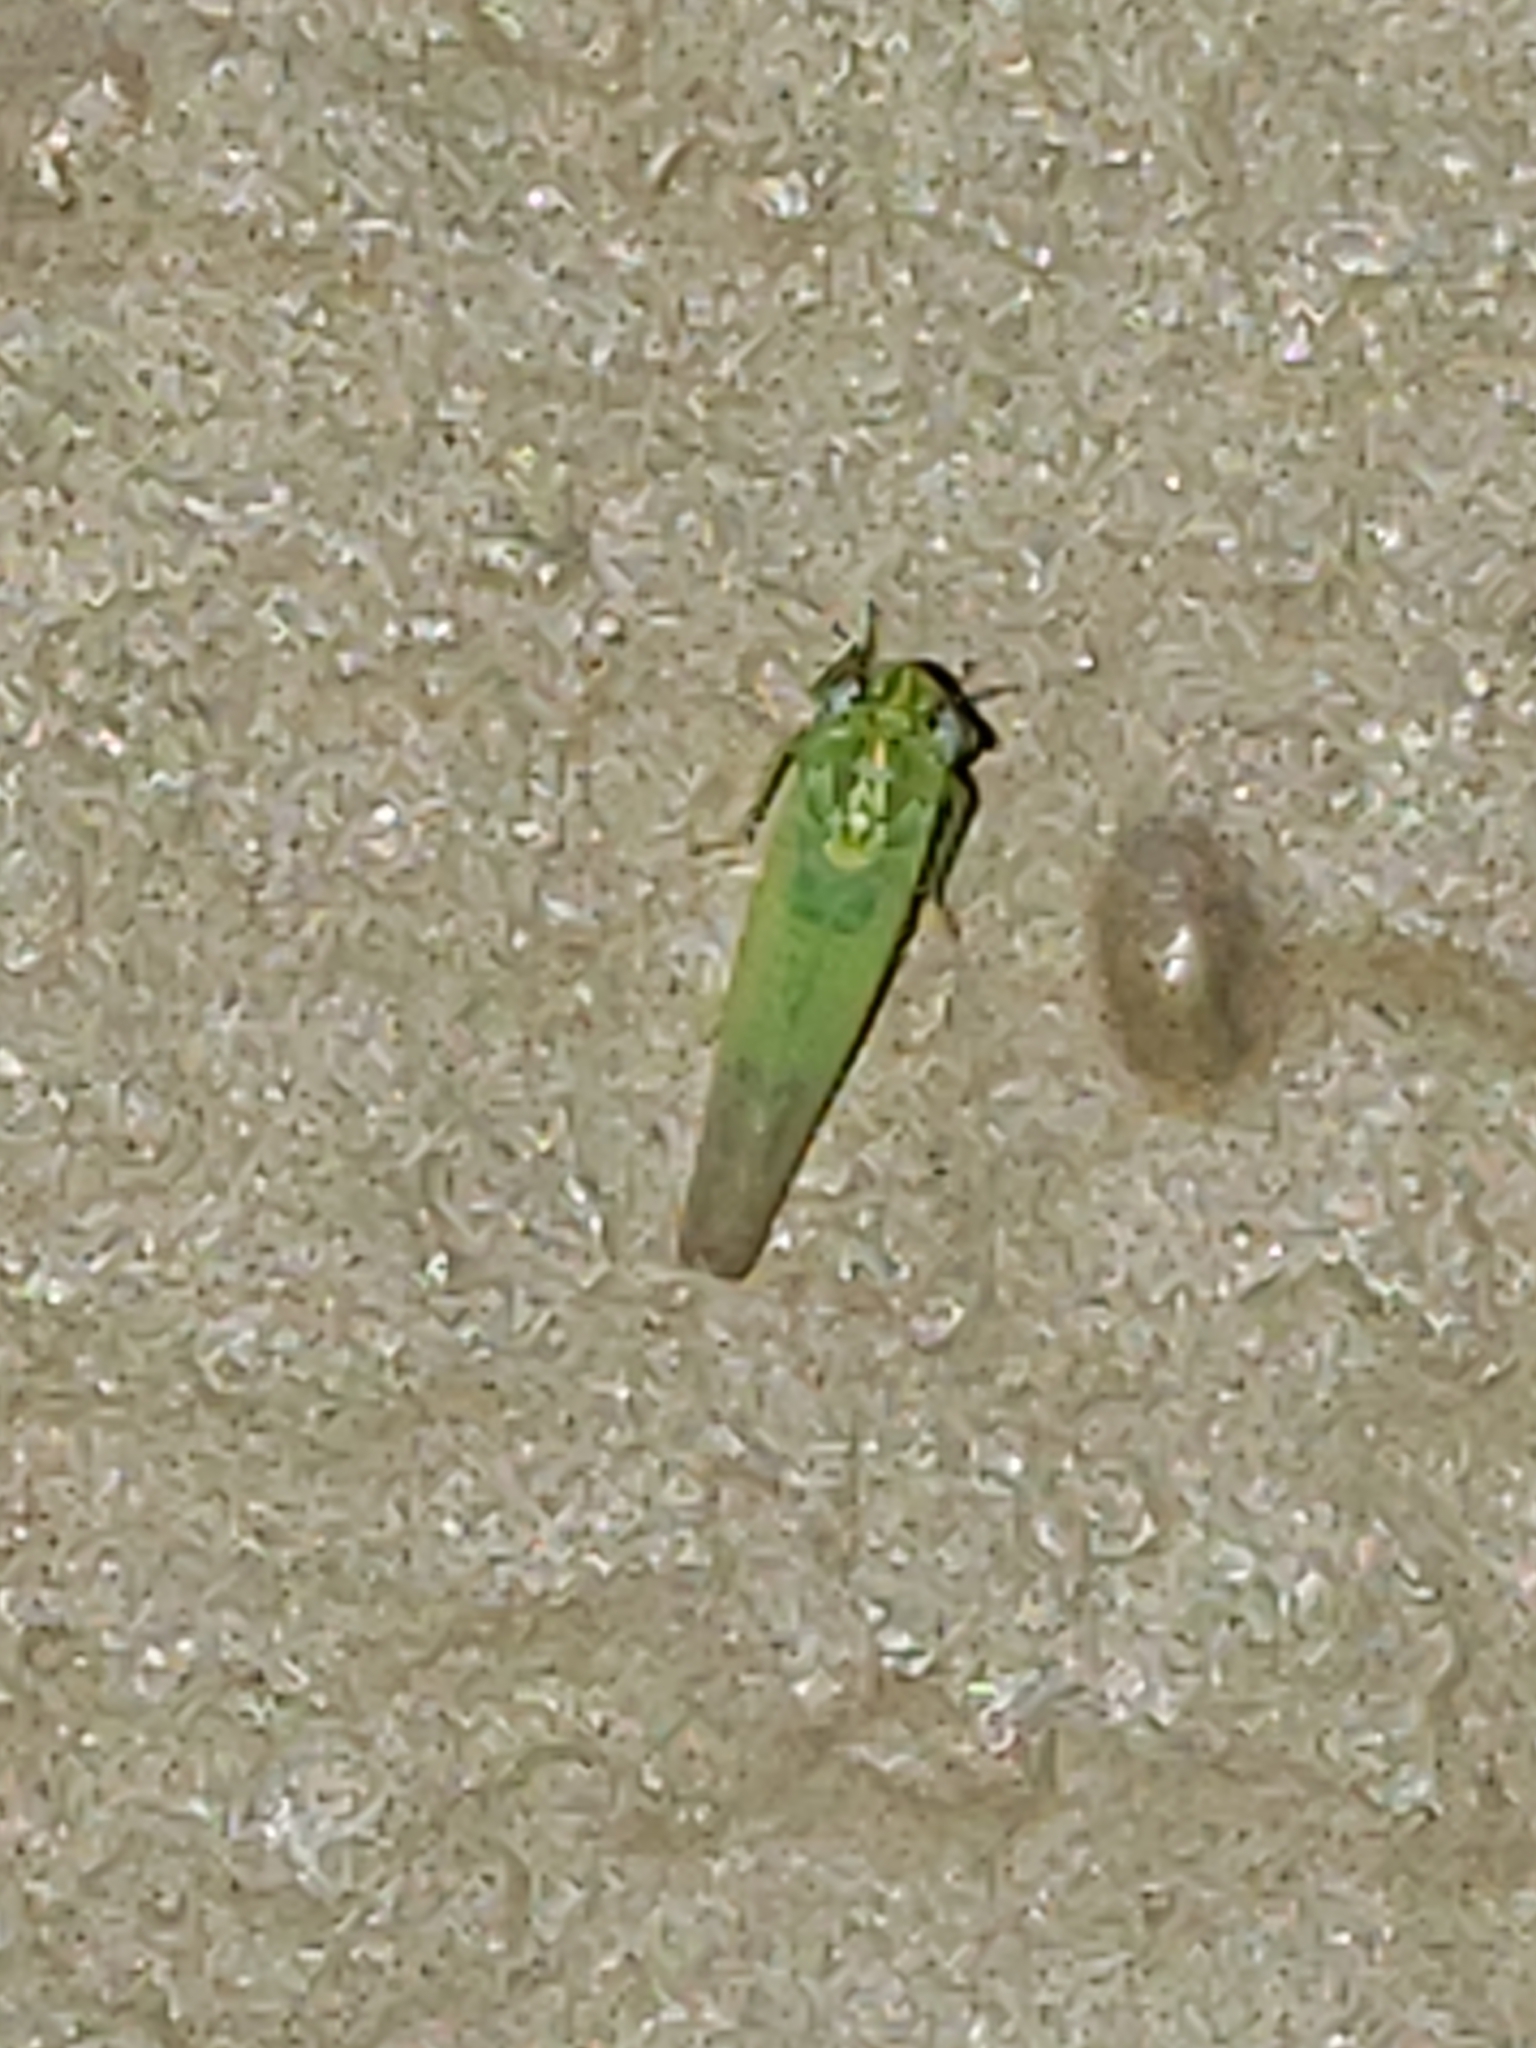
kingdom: Animalia
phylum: Arthropoda
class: Insecta
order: Hemiptera
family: Cicadellidae
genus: Empoasca
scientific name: Empoasca fabae
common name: Potato leafhopper
